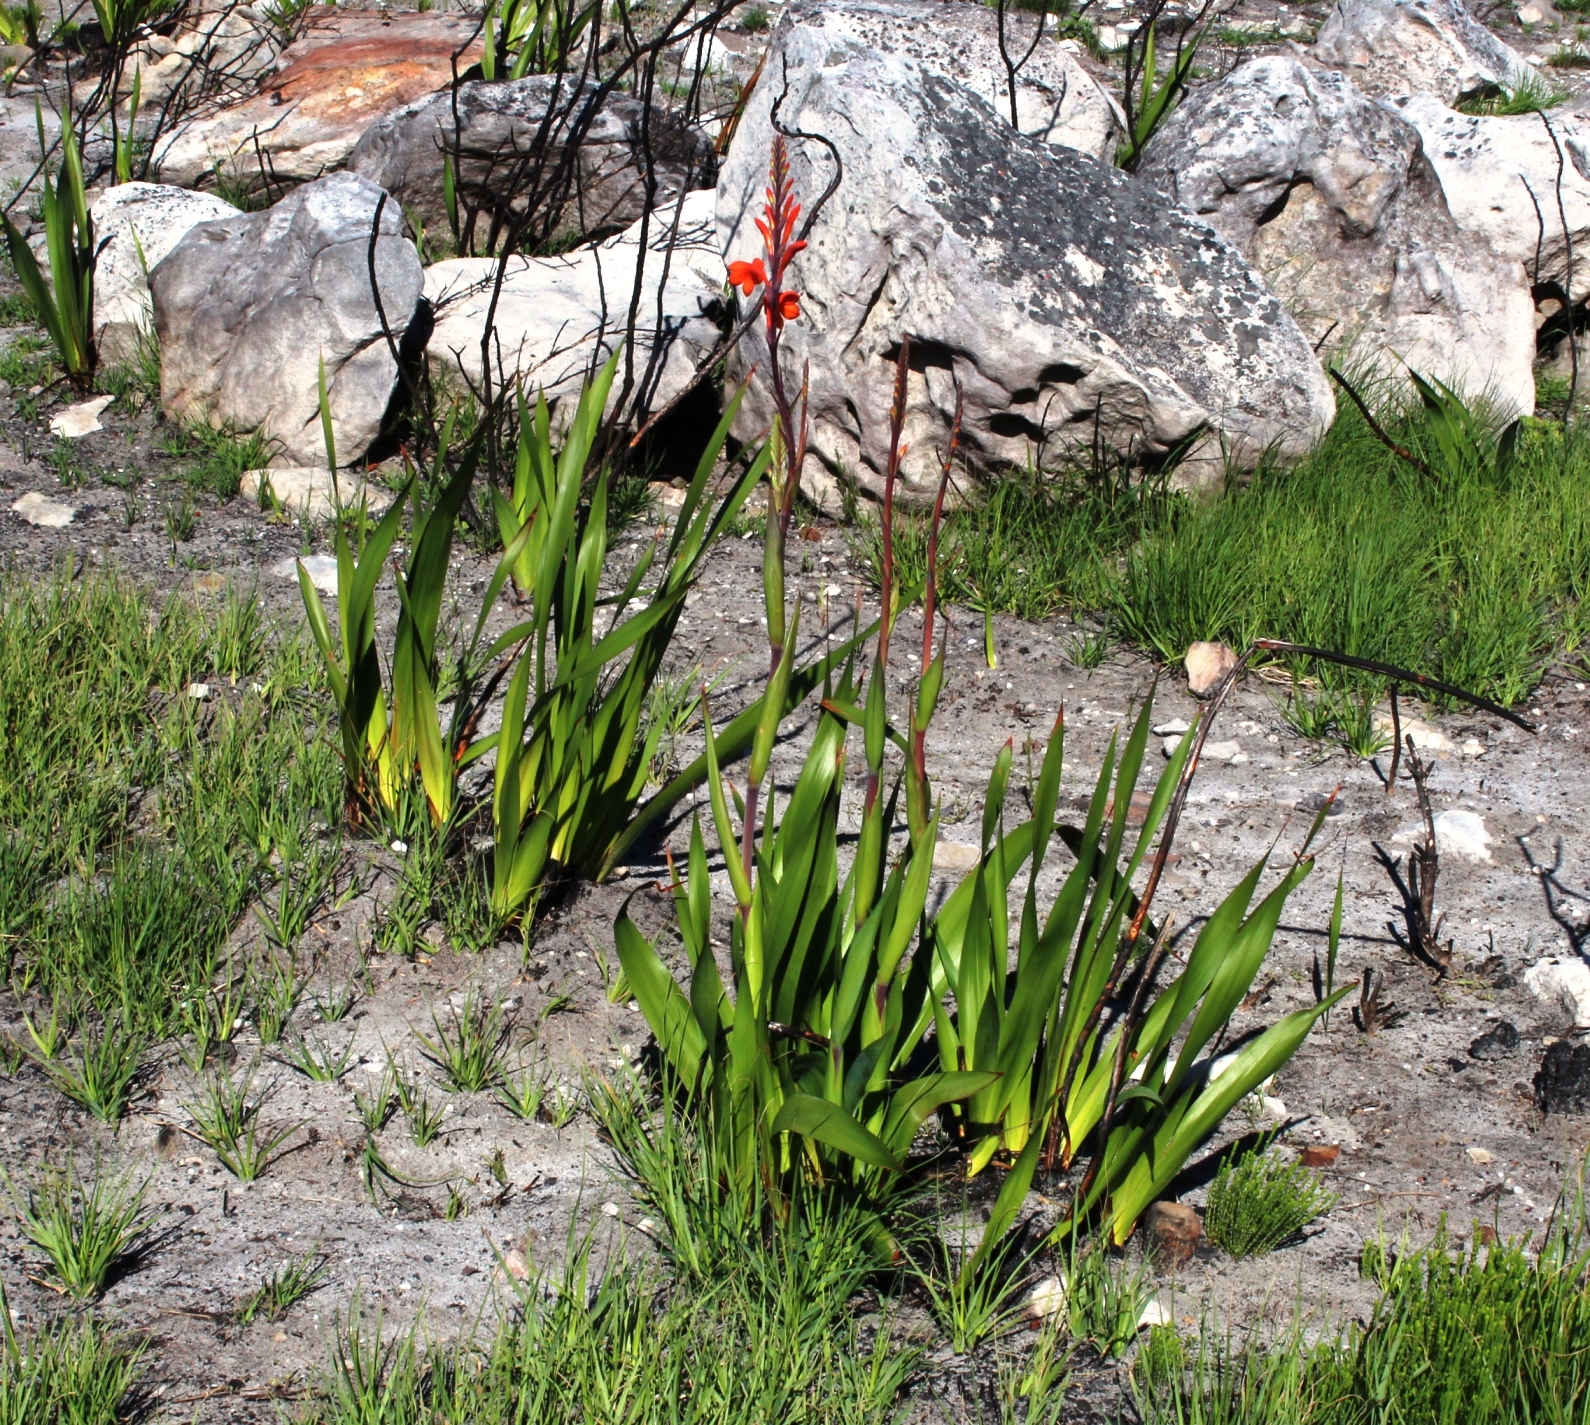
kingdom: Plantae
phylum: Tracheophyta
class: Liliopsida
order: Asparagales
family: Iridaceae
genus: Watsonia
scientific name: Watsonia tabularis
